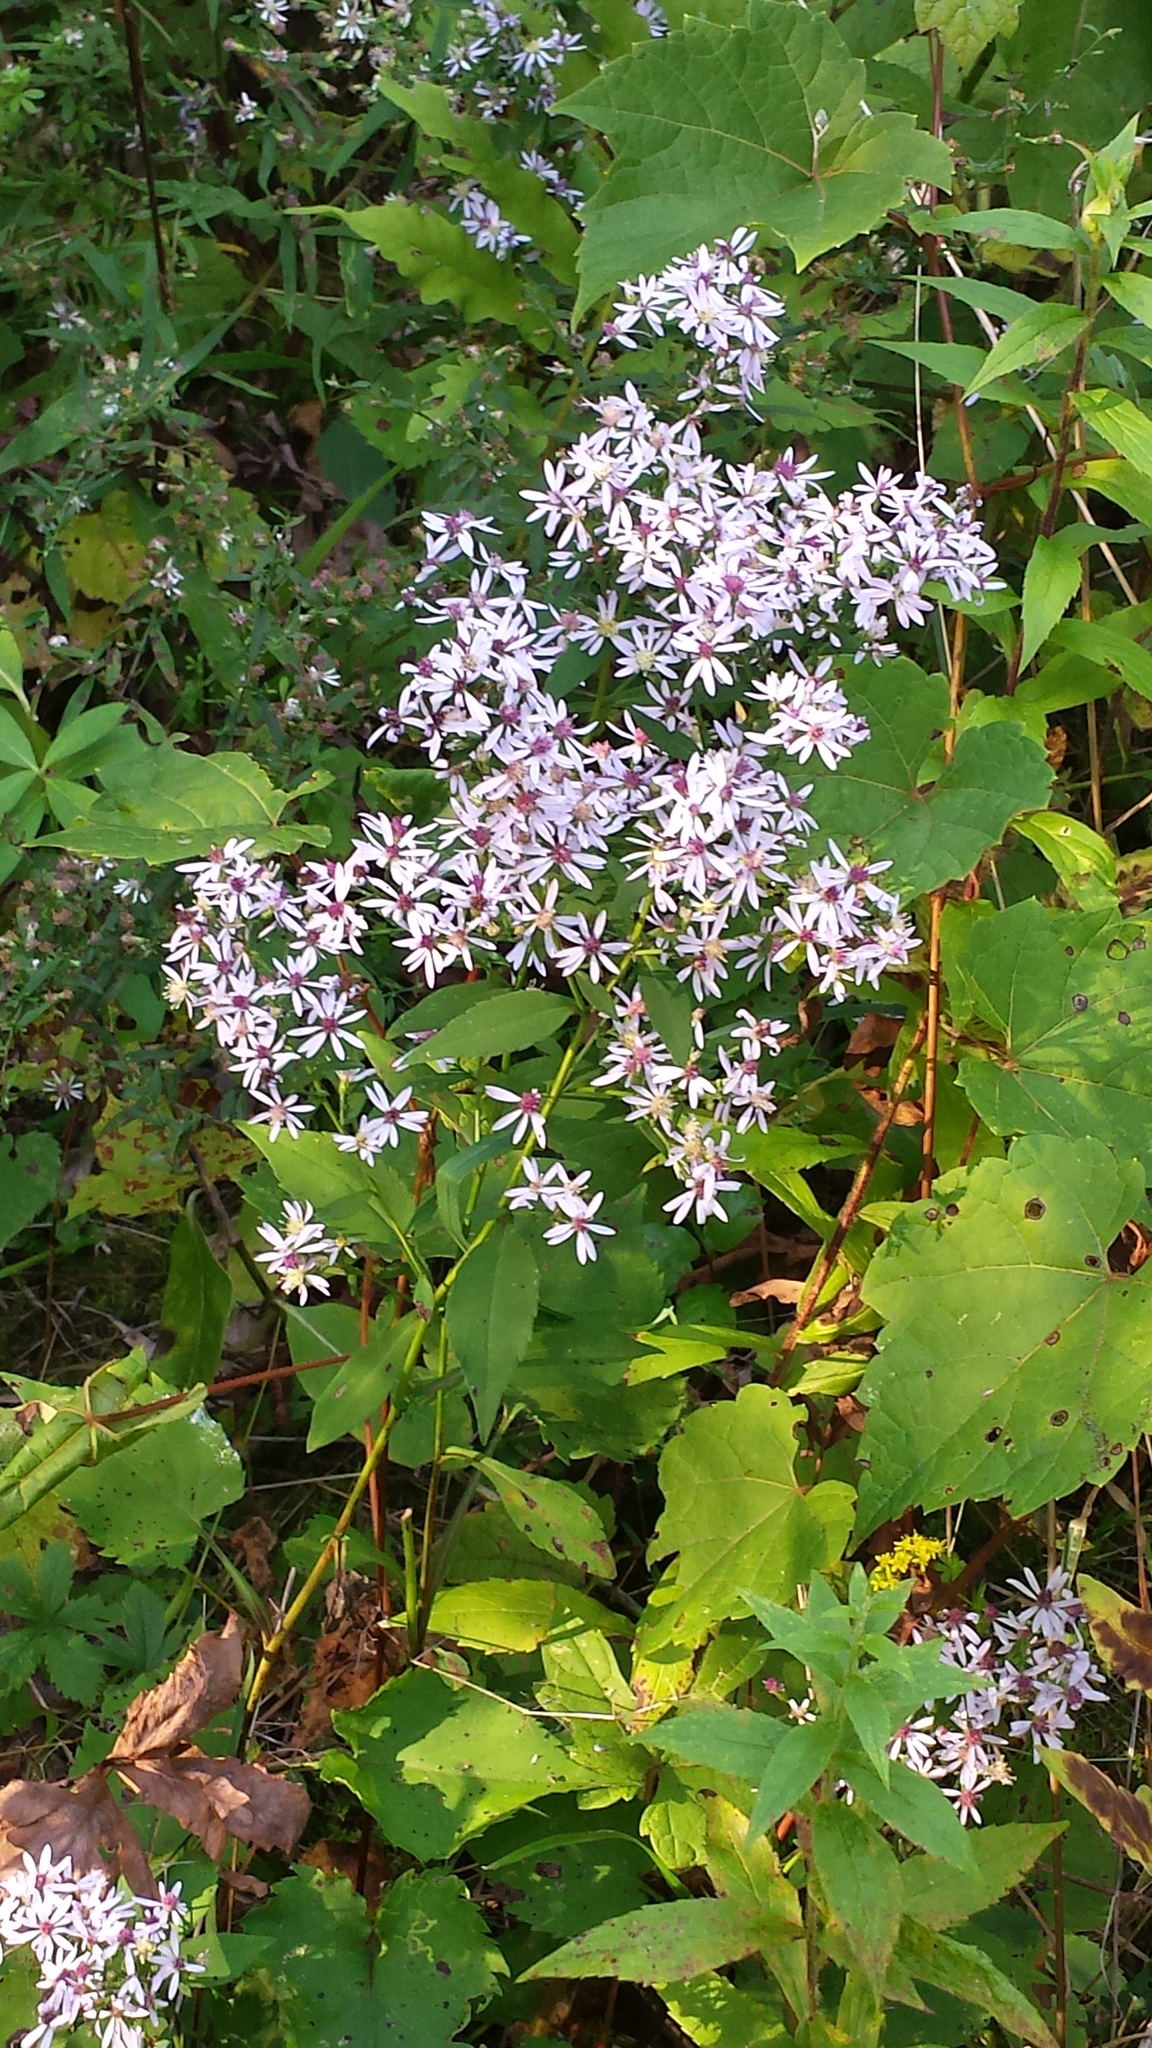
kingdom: Plantae
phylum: Tracheophyta
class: Magnoliopsida
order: Asterales
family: Asteraceae
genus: Symphyotrichum
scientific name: Symphyotrichum cordifolium
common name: Beeweed
